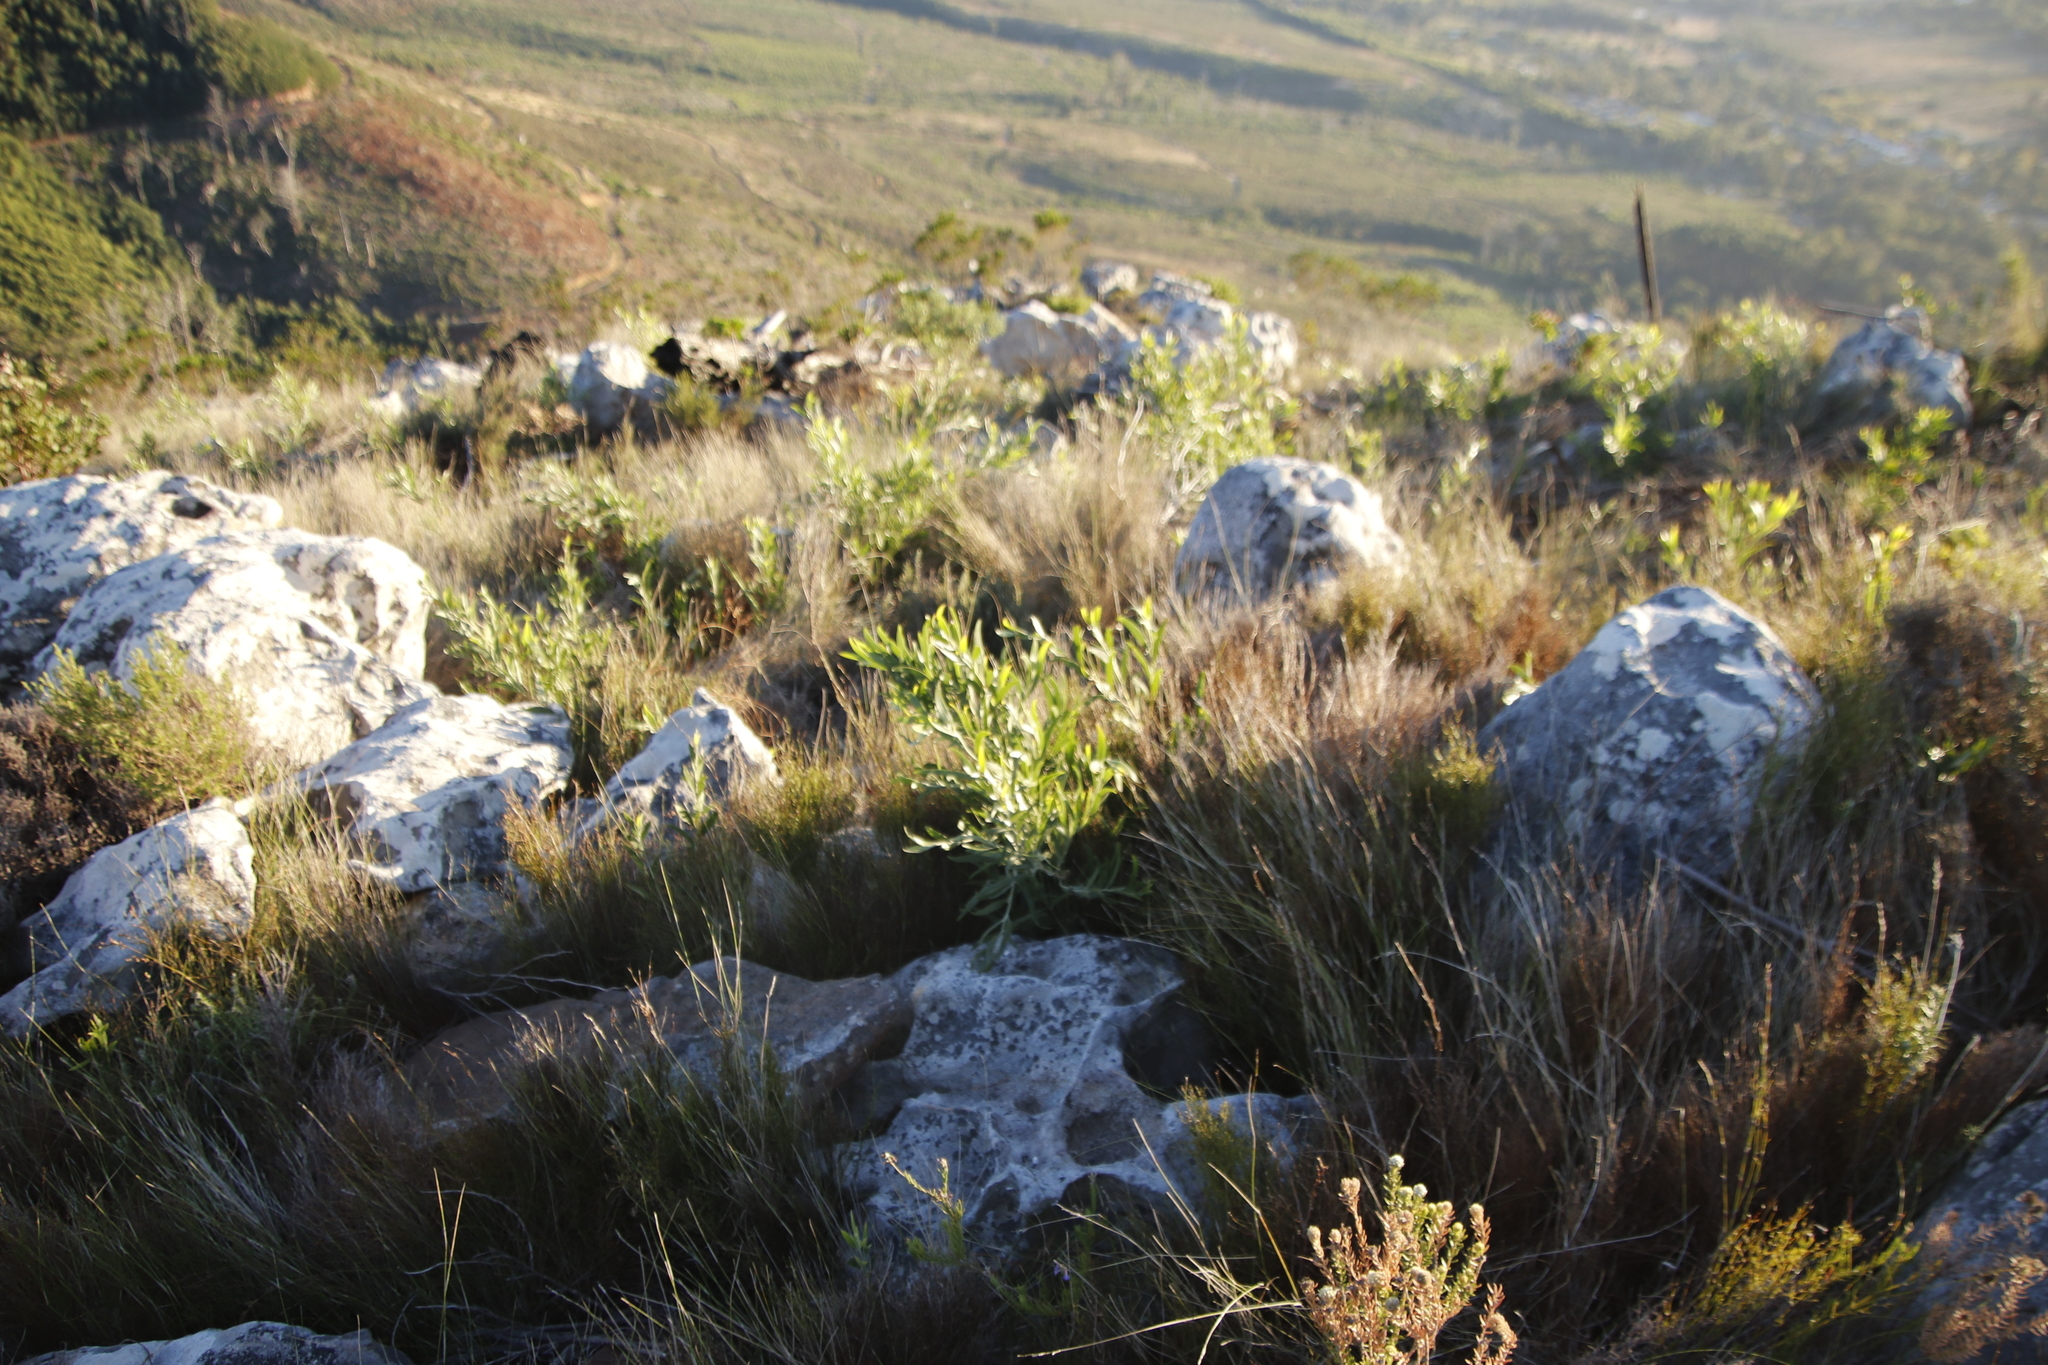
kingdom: Plantae
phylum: Tracheophyta
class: Magnoliopsida
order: Fabales
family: Fabaceae
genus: Acacia
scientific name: Acacia melanoxylon
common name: Blackwood
